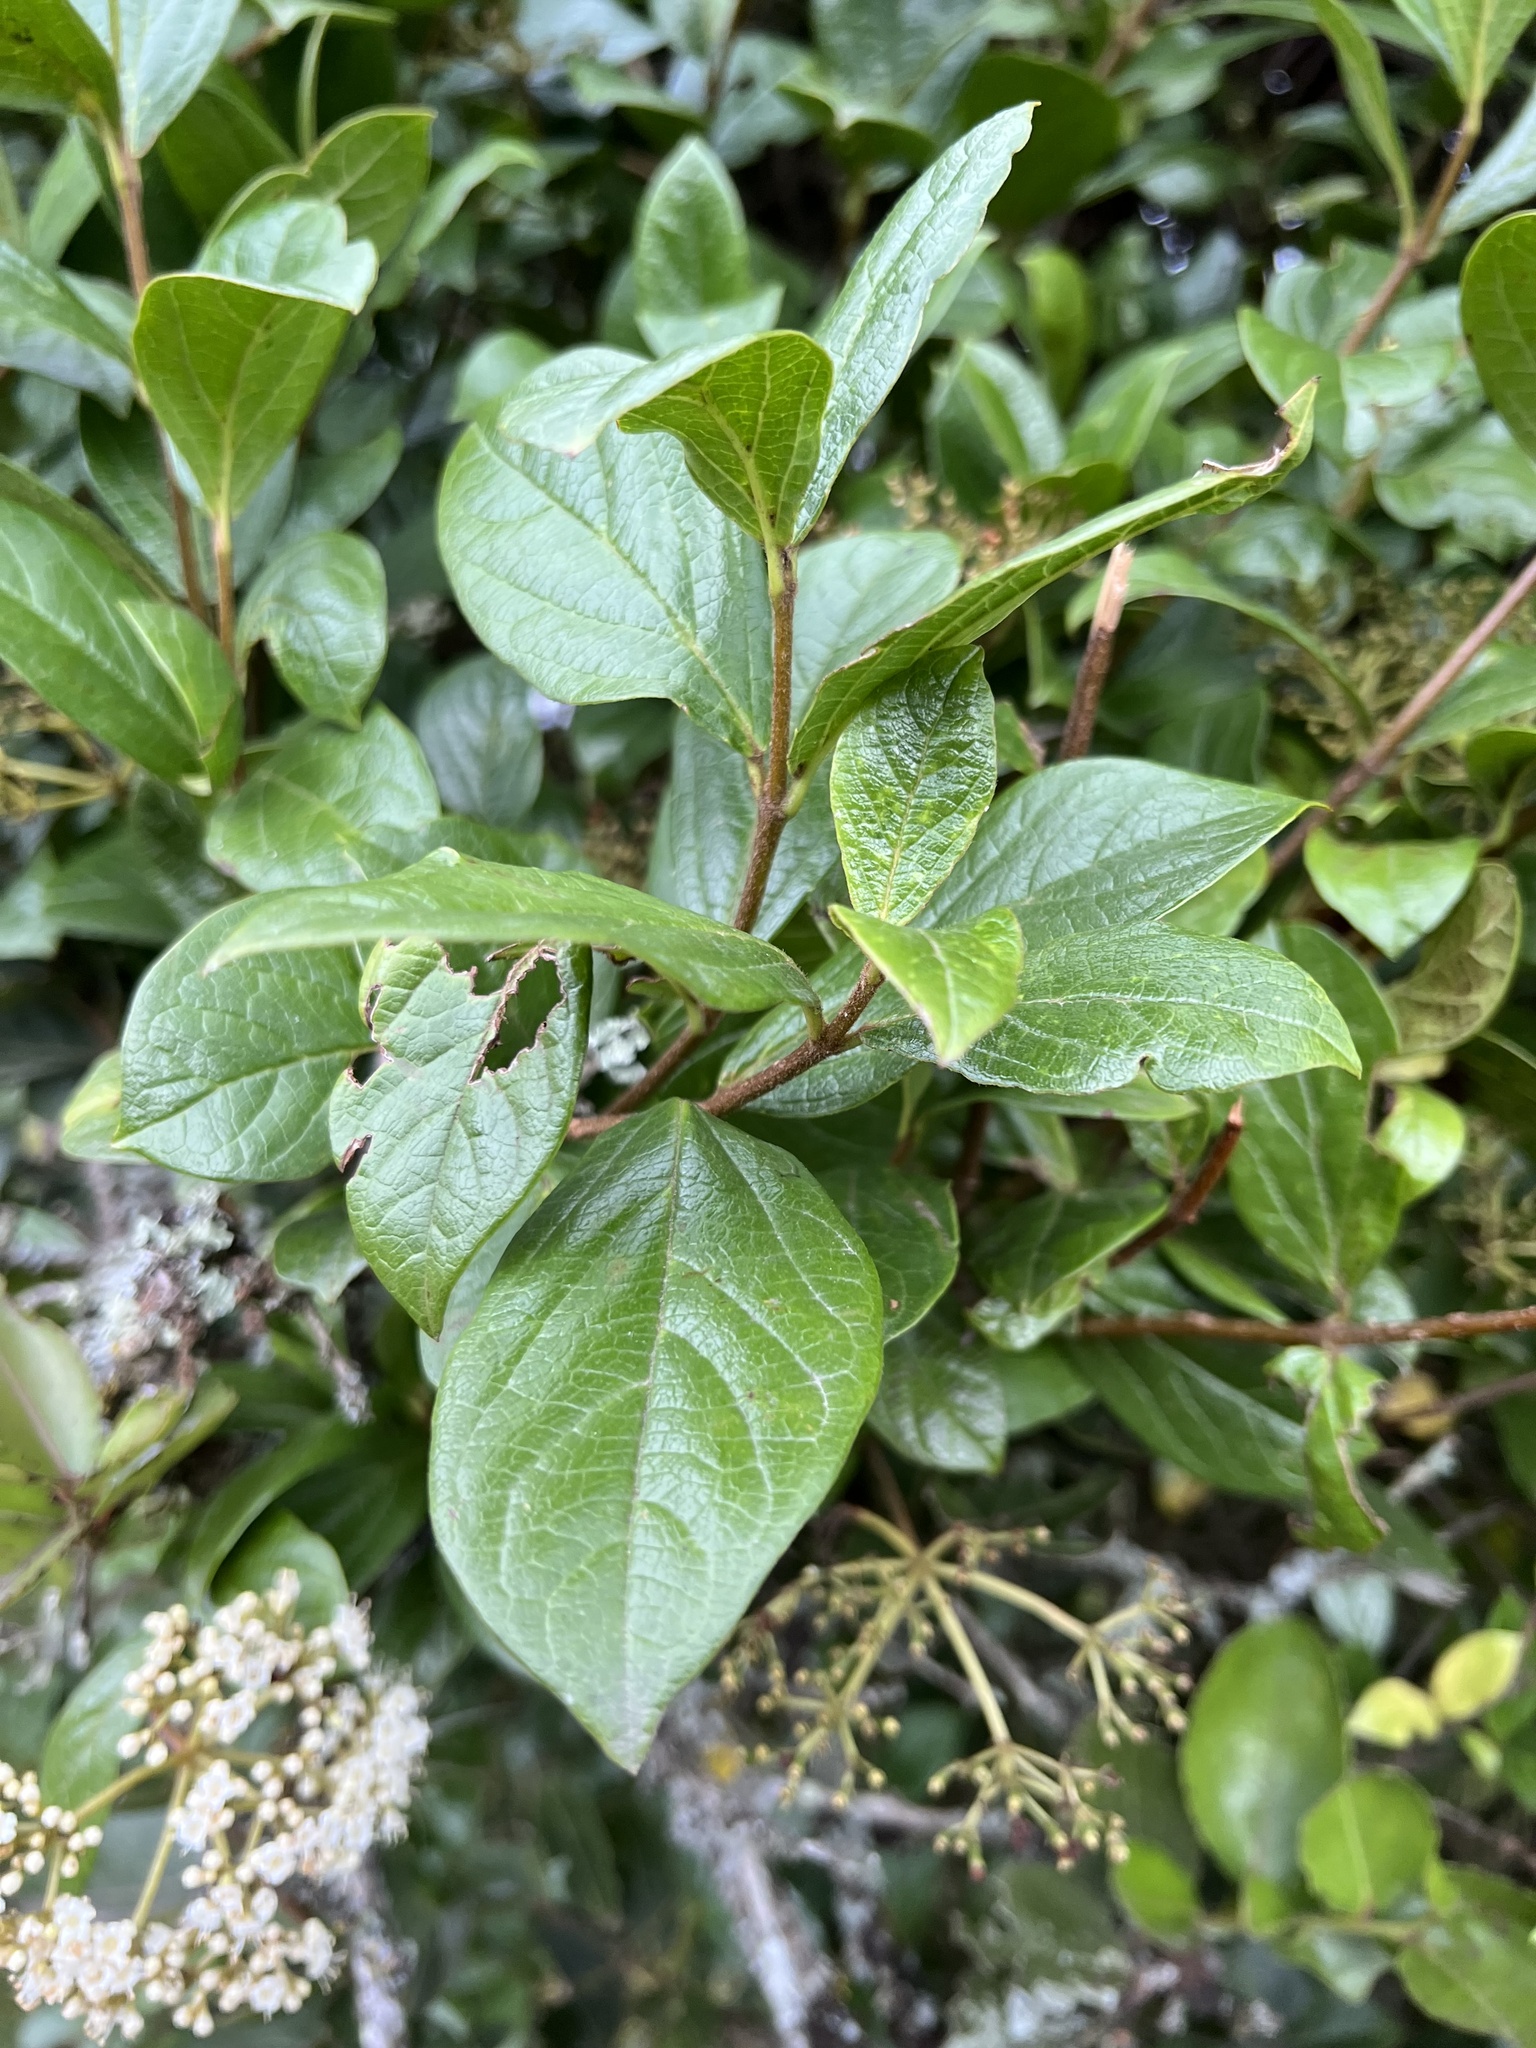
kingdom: Plantae
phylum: Tracheophyta
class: Magnoliopsida
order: Dipsacales
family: Viburnaceae
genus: Viburnum
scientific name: Viburnum tinoides
